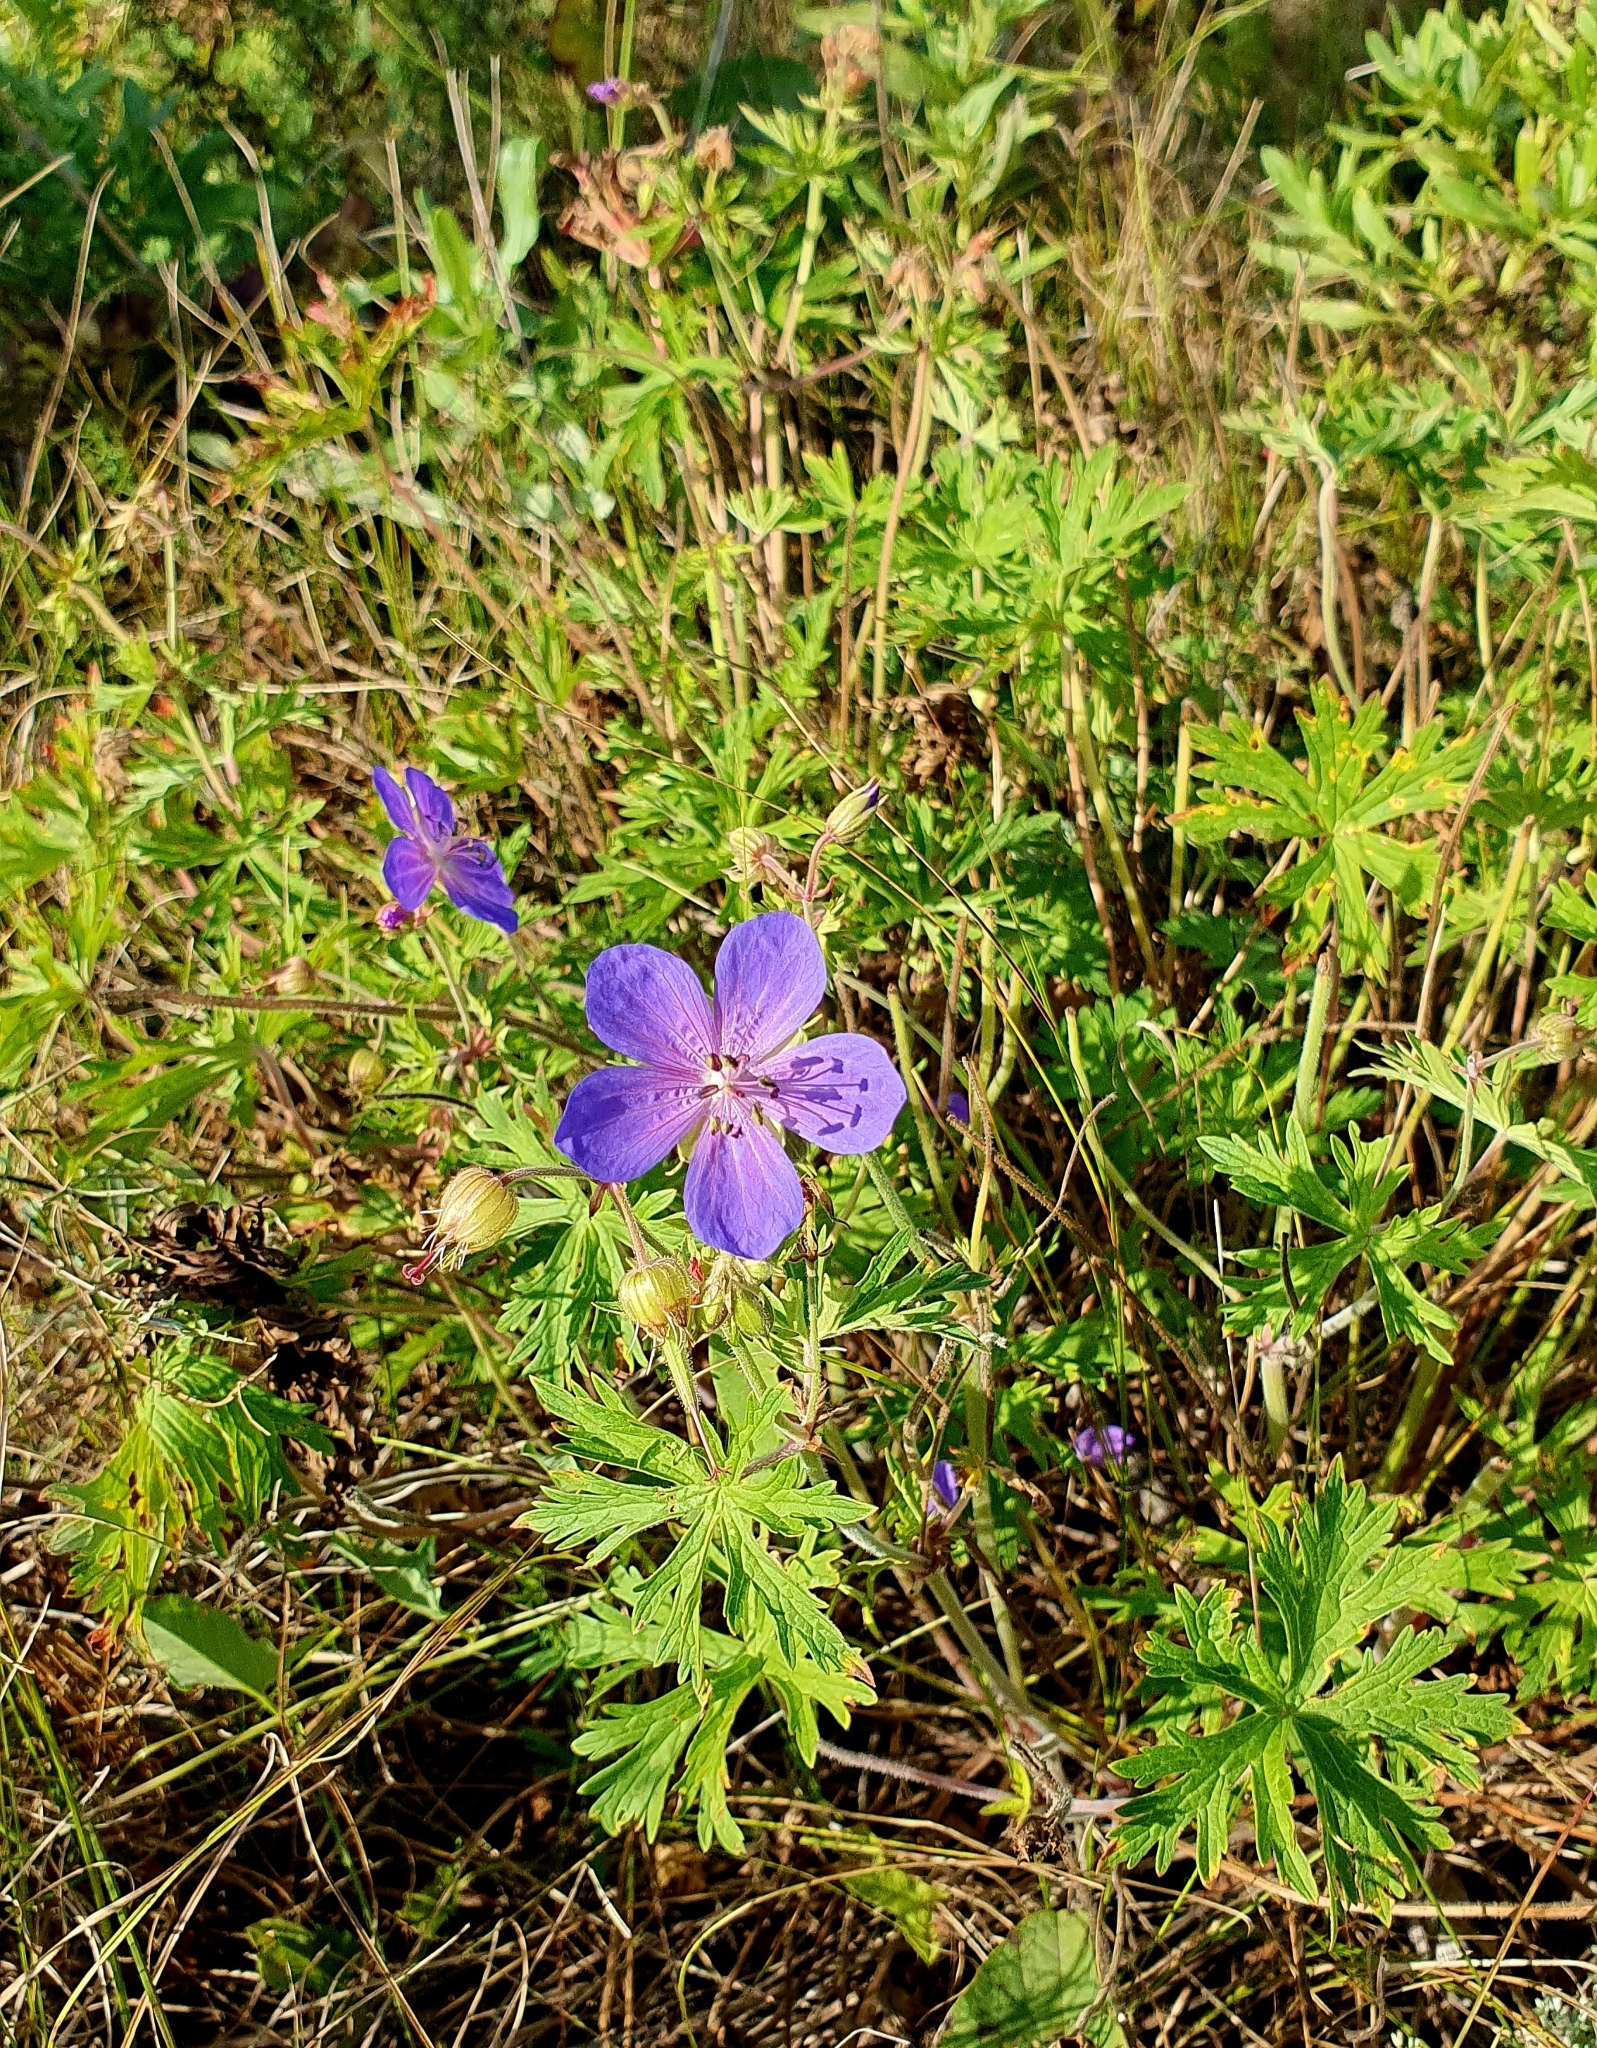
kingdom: Plantae
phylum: Tracheophyta
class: Magnoliopsida
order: Geraniales
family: Geraniaceae
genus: Geranium
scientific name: Geranium pratense
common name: Meadow crane's-bill
